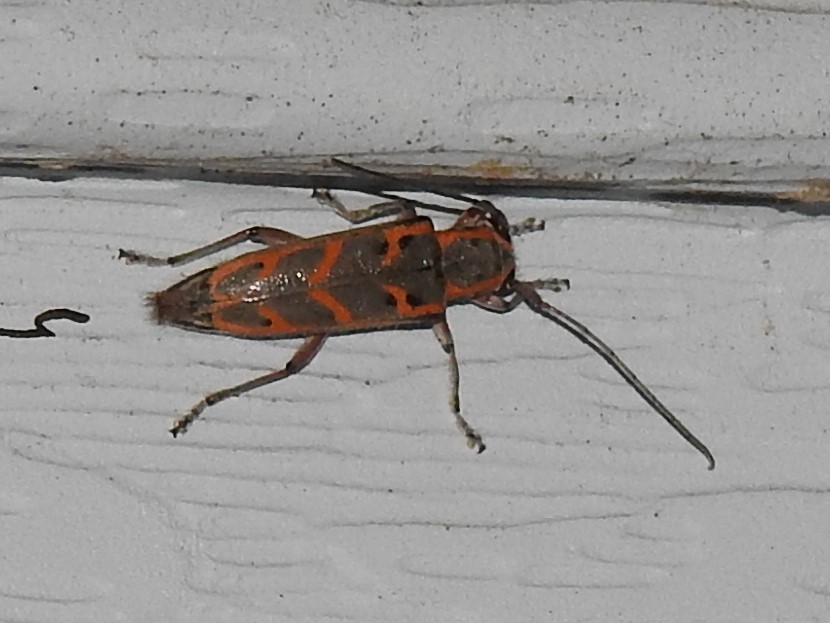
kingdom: Animalia
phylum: Arthropoda
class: Insecta
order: Coleoptera
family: Cerambycidae
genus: Saperda
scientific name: Saperda tridentata
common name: Elm borer
